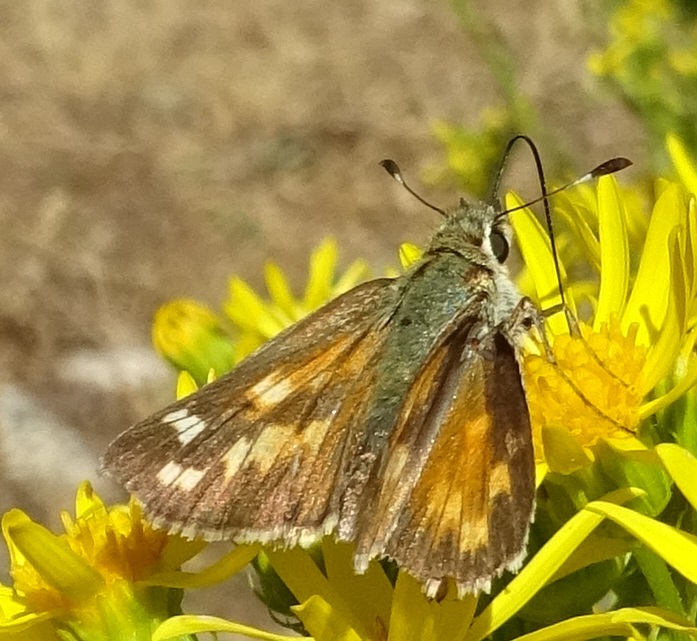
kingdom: Animalia
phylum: Arthropoda
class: Insecta
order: Lepidoptera
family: Hesperiidae
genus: Hesperia
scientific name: Hesperia comma
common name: Common branded skipper
